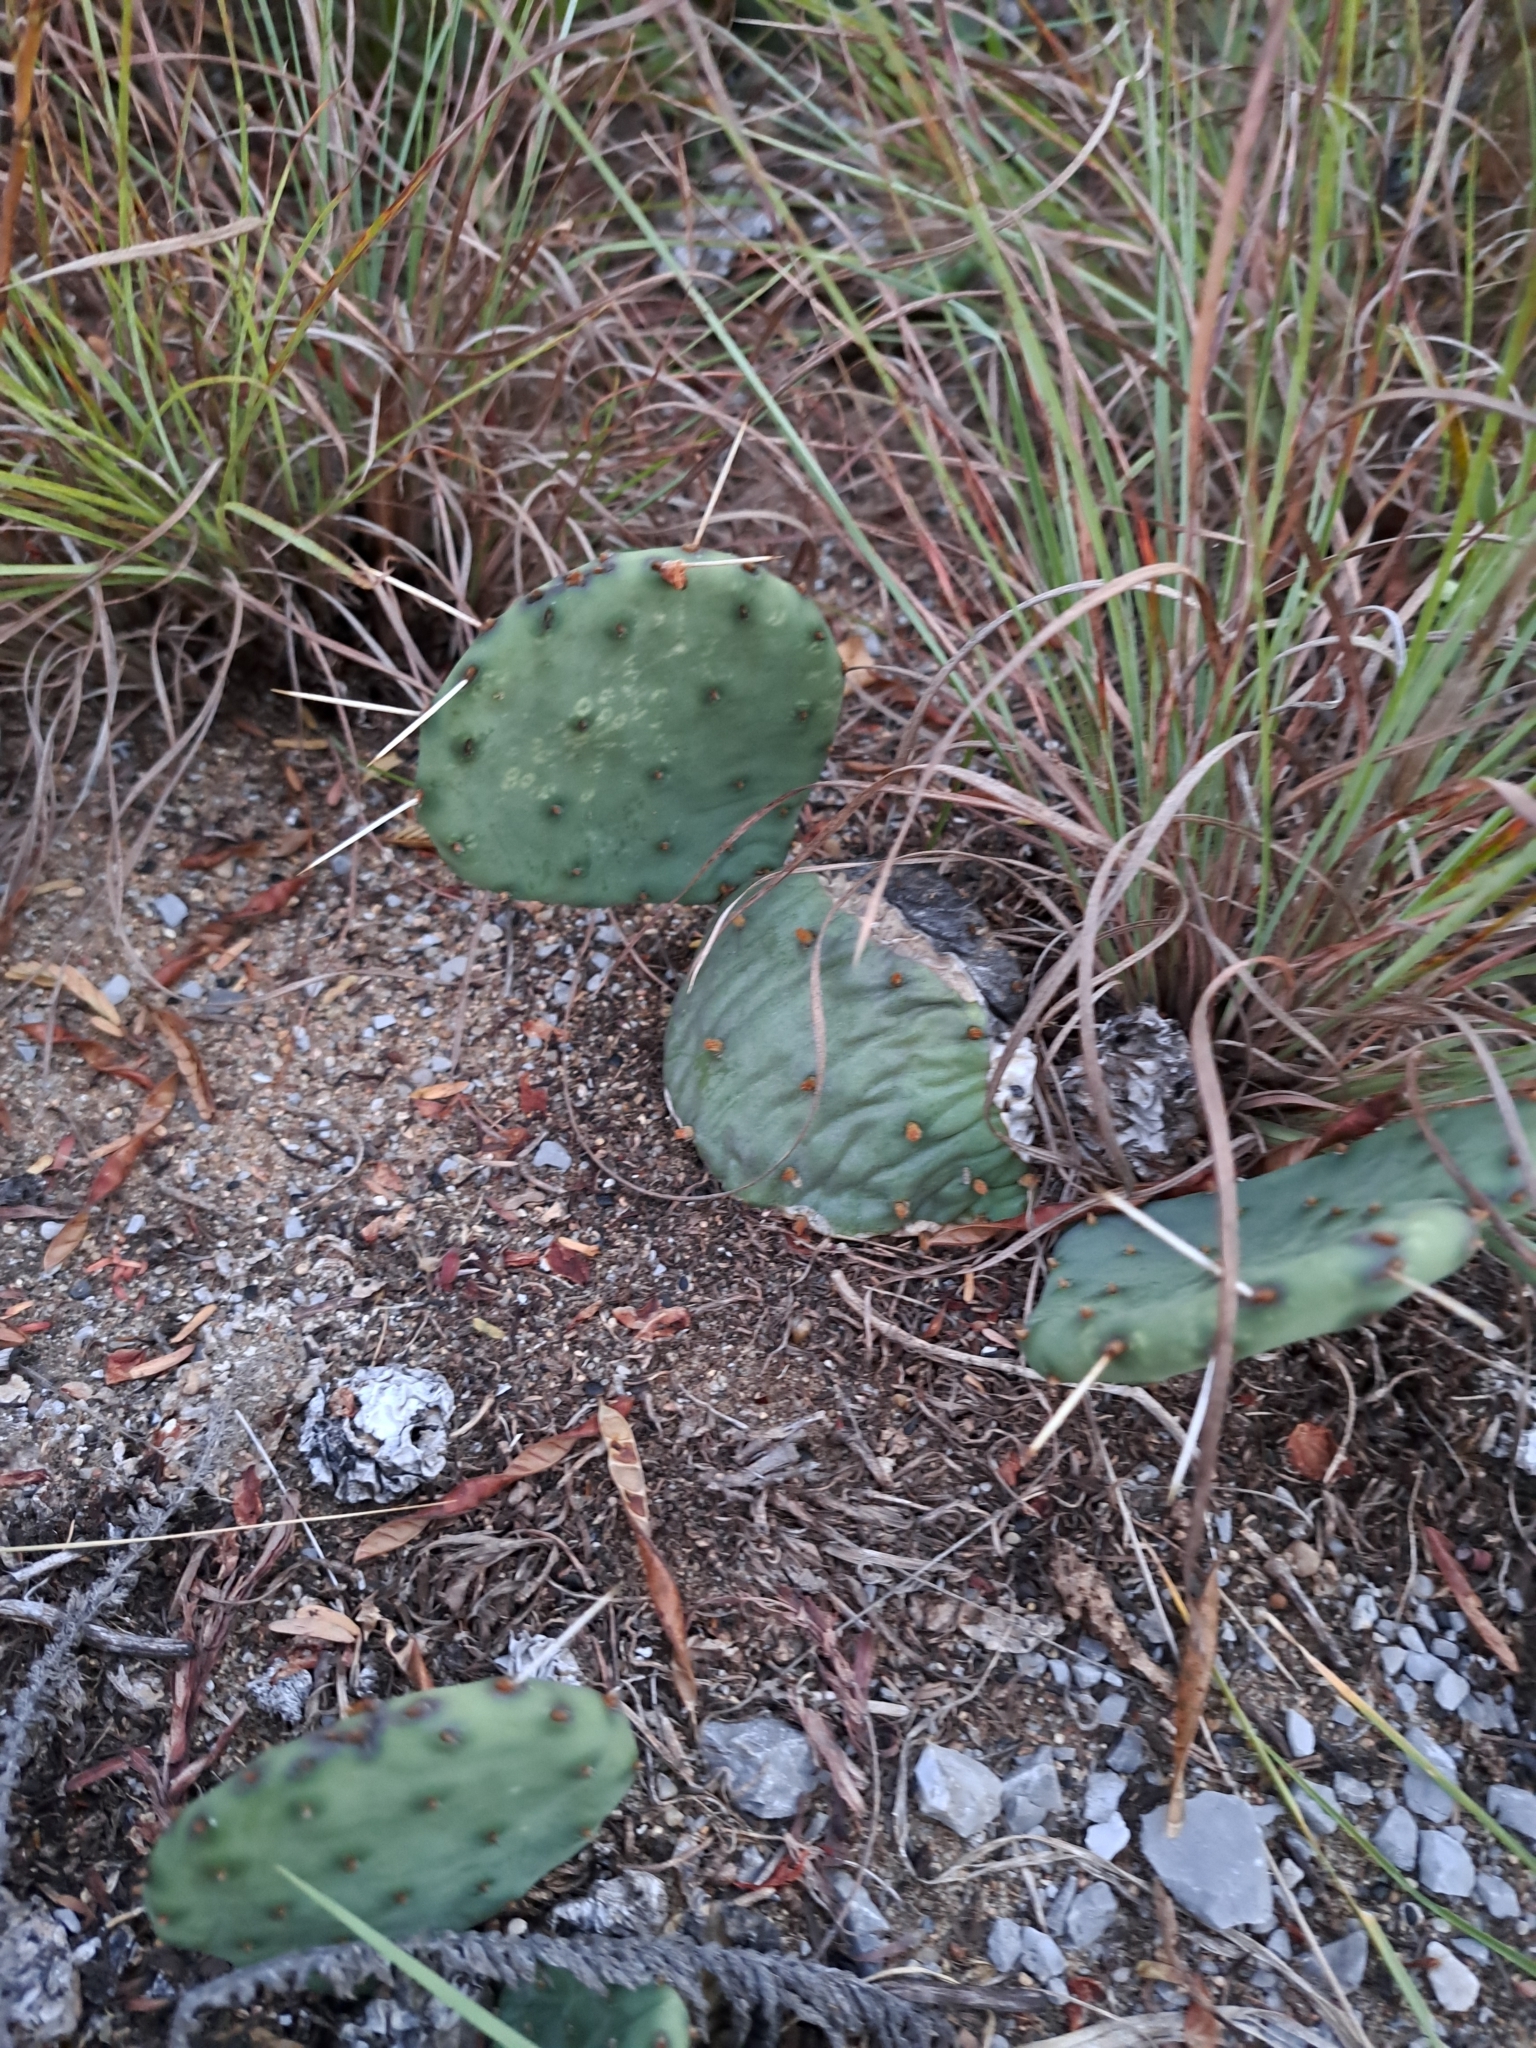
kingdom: Plantae
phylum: Tracheophyta
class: Magnoliopsida
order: Caryophyllales
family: Cactaceae
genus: Opuntia
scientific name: Opuntia humifusa
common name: Eastern prickly-pear
